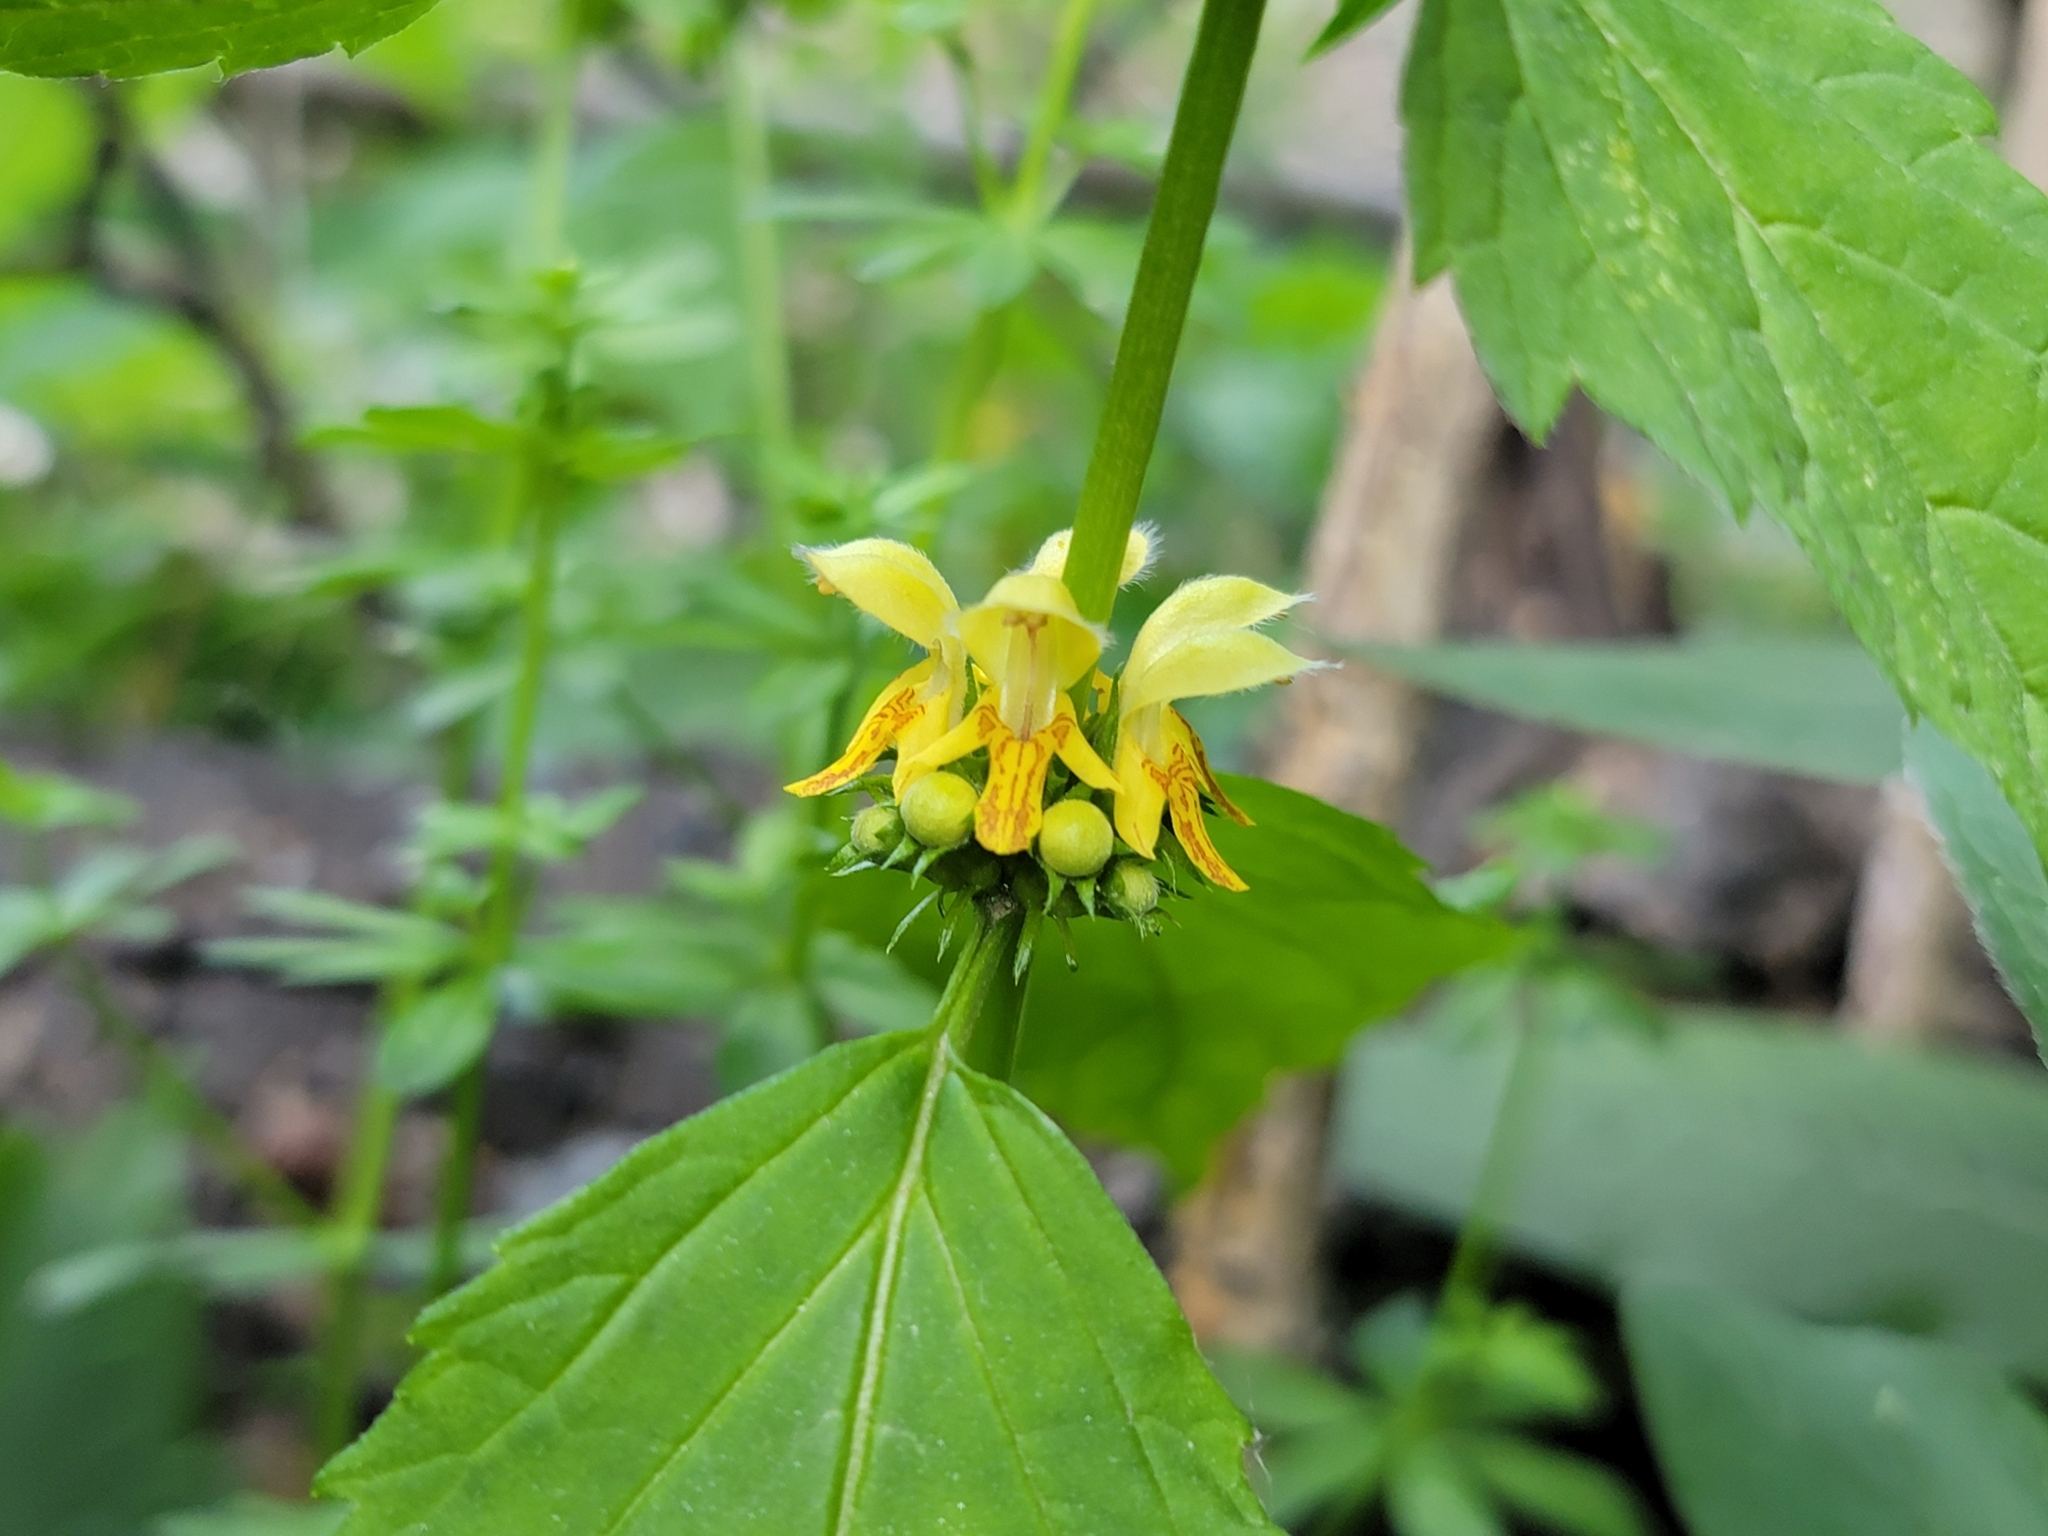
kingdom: Plantae
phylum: Tracheophyta
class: Magnoliopsida
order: Lamiales
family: Lamiaceae
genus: Lamium
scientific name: Lamium galeobdolon
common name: Yellow archangel
